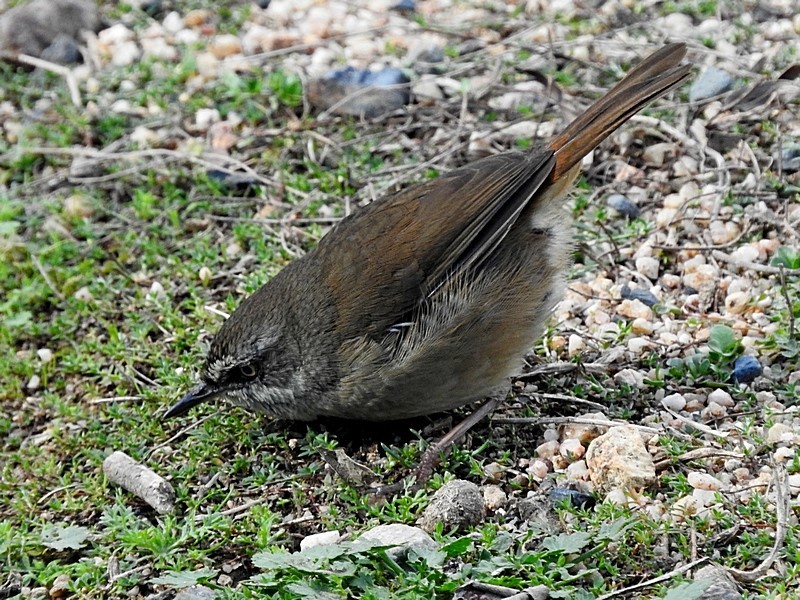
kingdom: Animalia
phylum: Chordata
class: Aves
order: Passeriformes
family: Acanthizidae
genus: Sericornis
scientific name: Sericornis frontalis
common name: White-browed scrubwren
